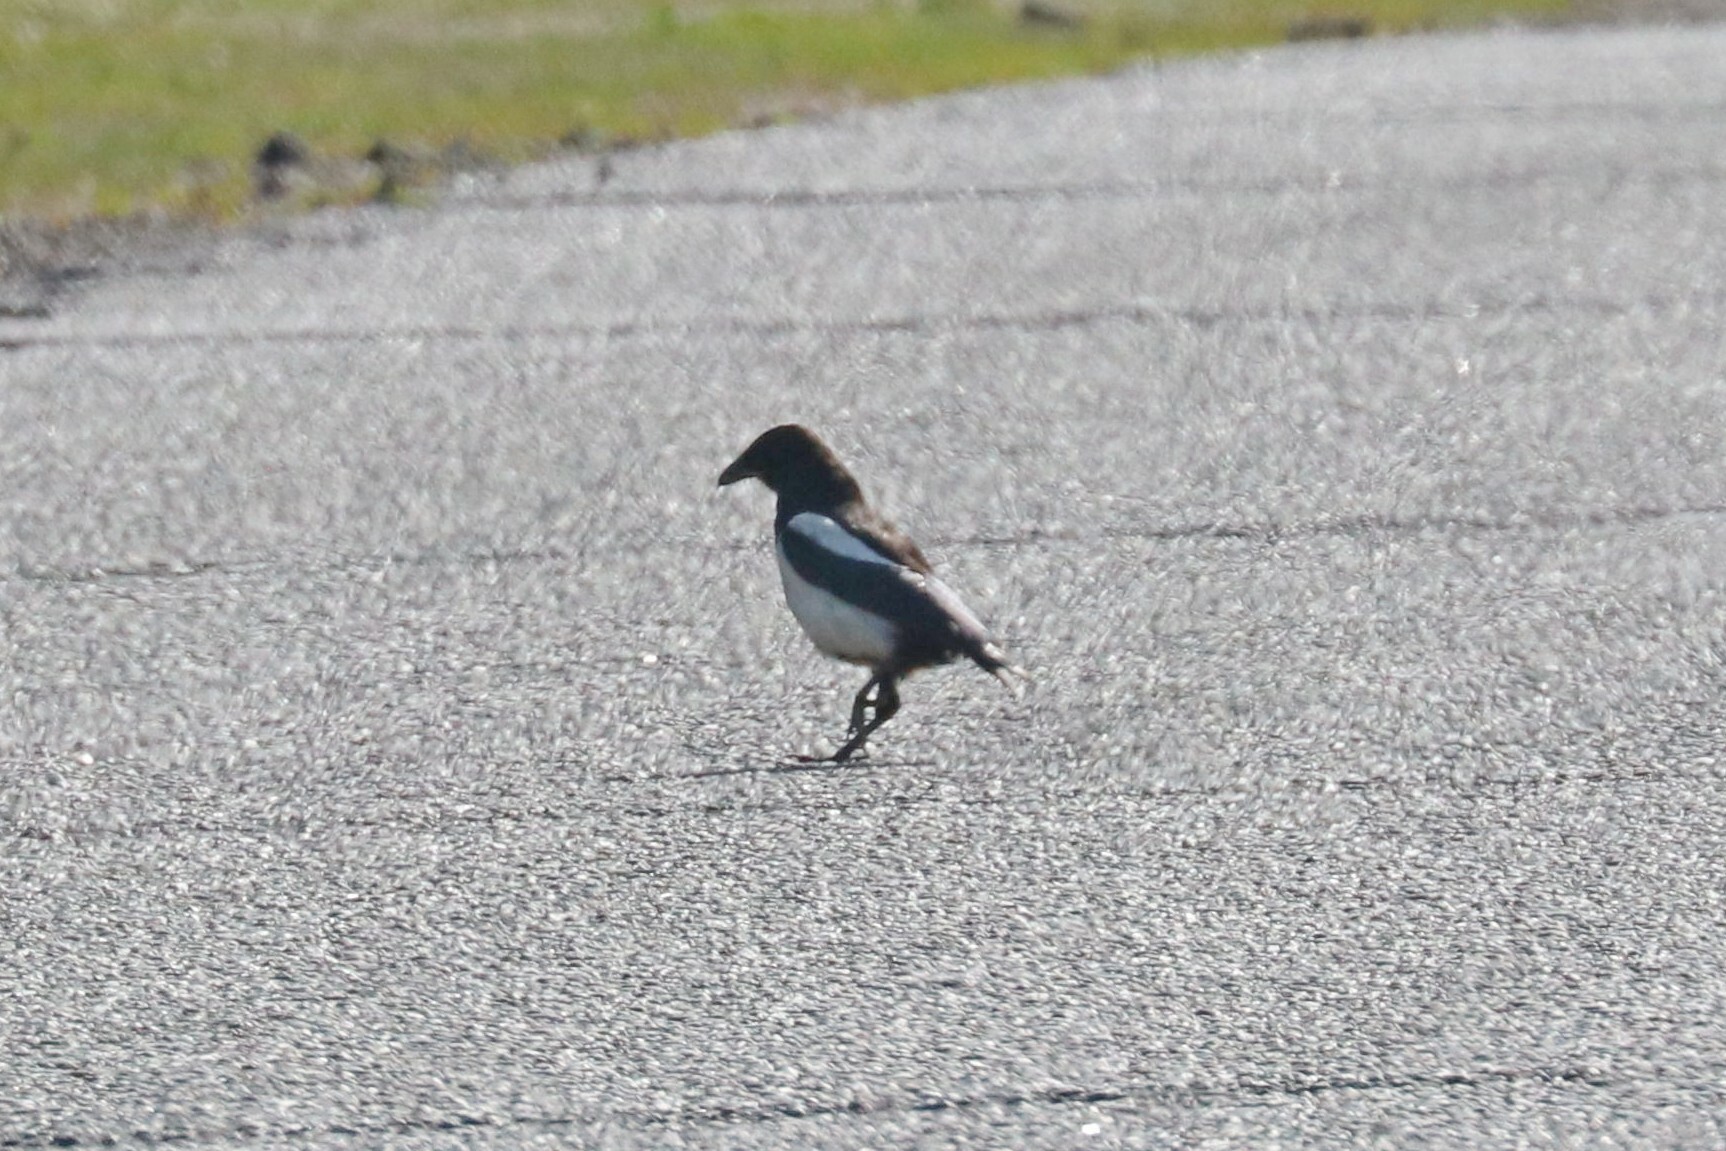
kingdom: Animalia
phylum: Chordata
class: Aves
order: Passeriformes
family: Corvidae
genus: Pica
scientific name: Pica pica
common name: Eurasian magpie
